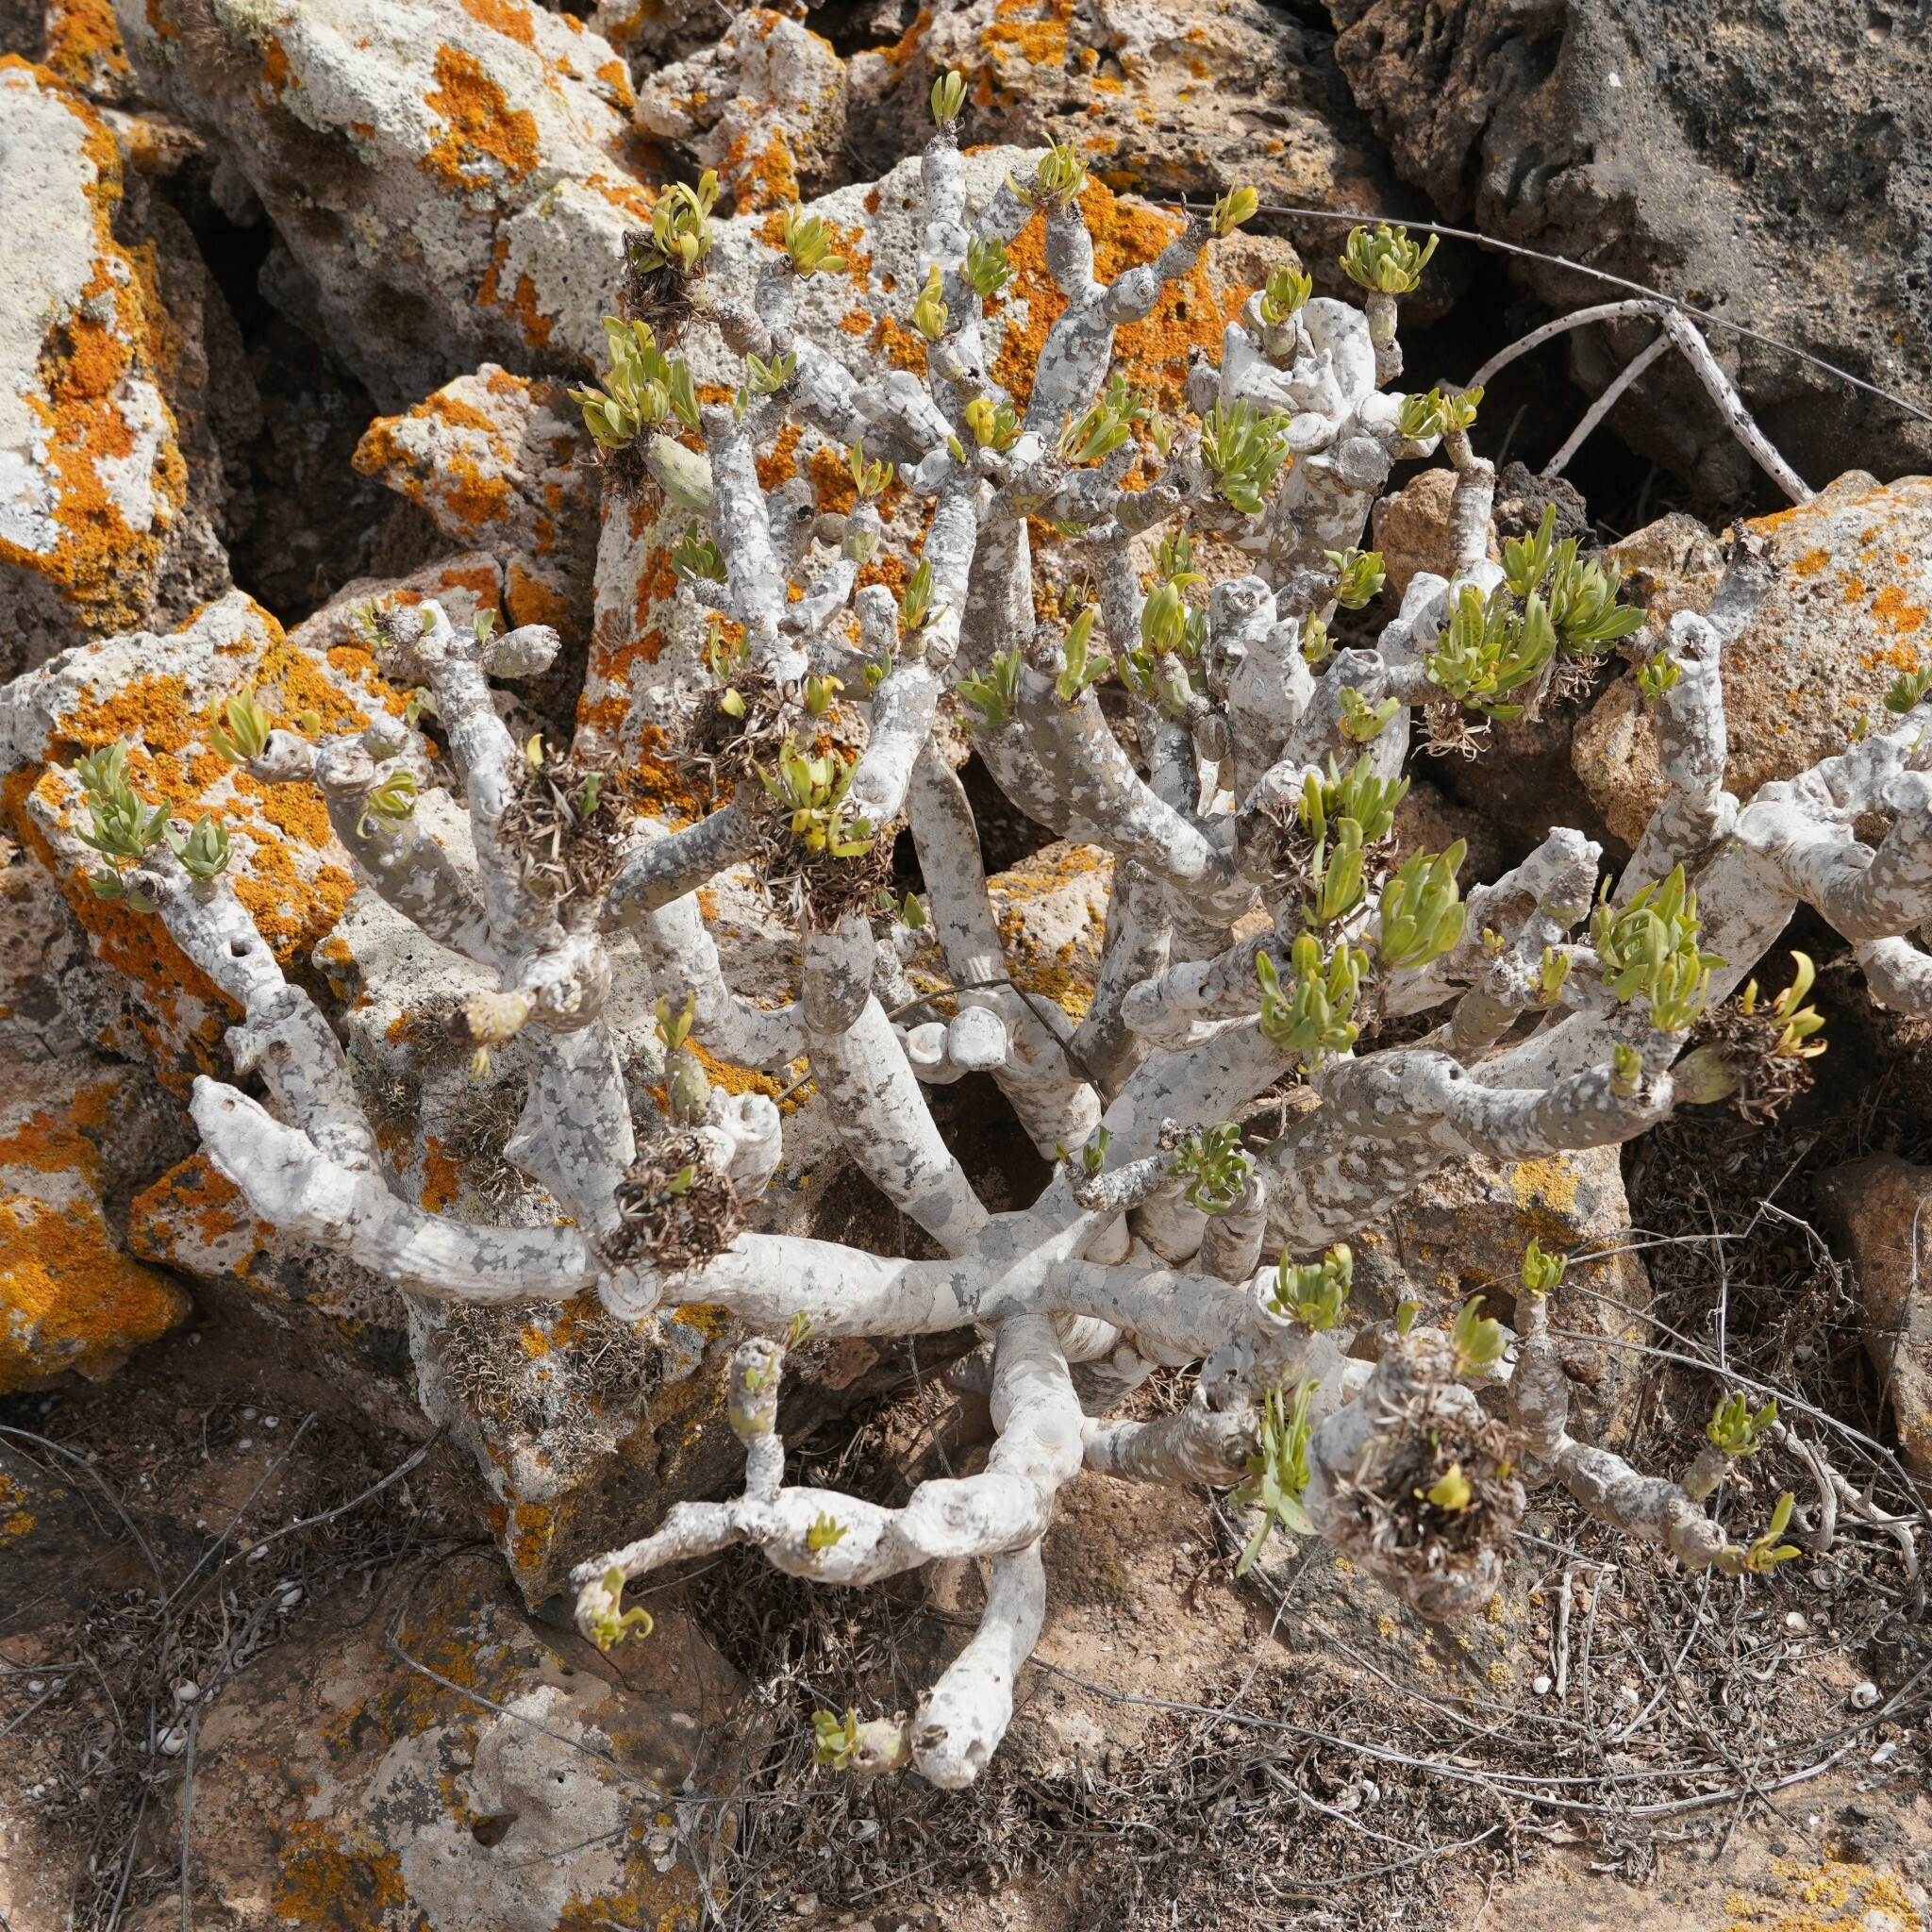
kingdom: Plantae
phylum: Tracheophyta
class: Magnoliopsida
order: Asterales
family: Asteraceae
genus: Kleinia
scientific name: Kleinia neriifolia
